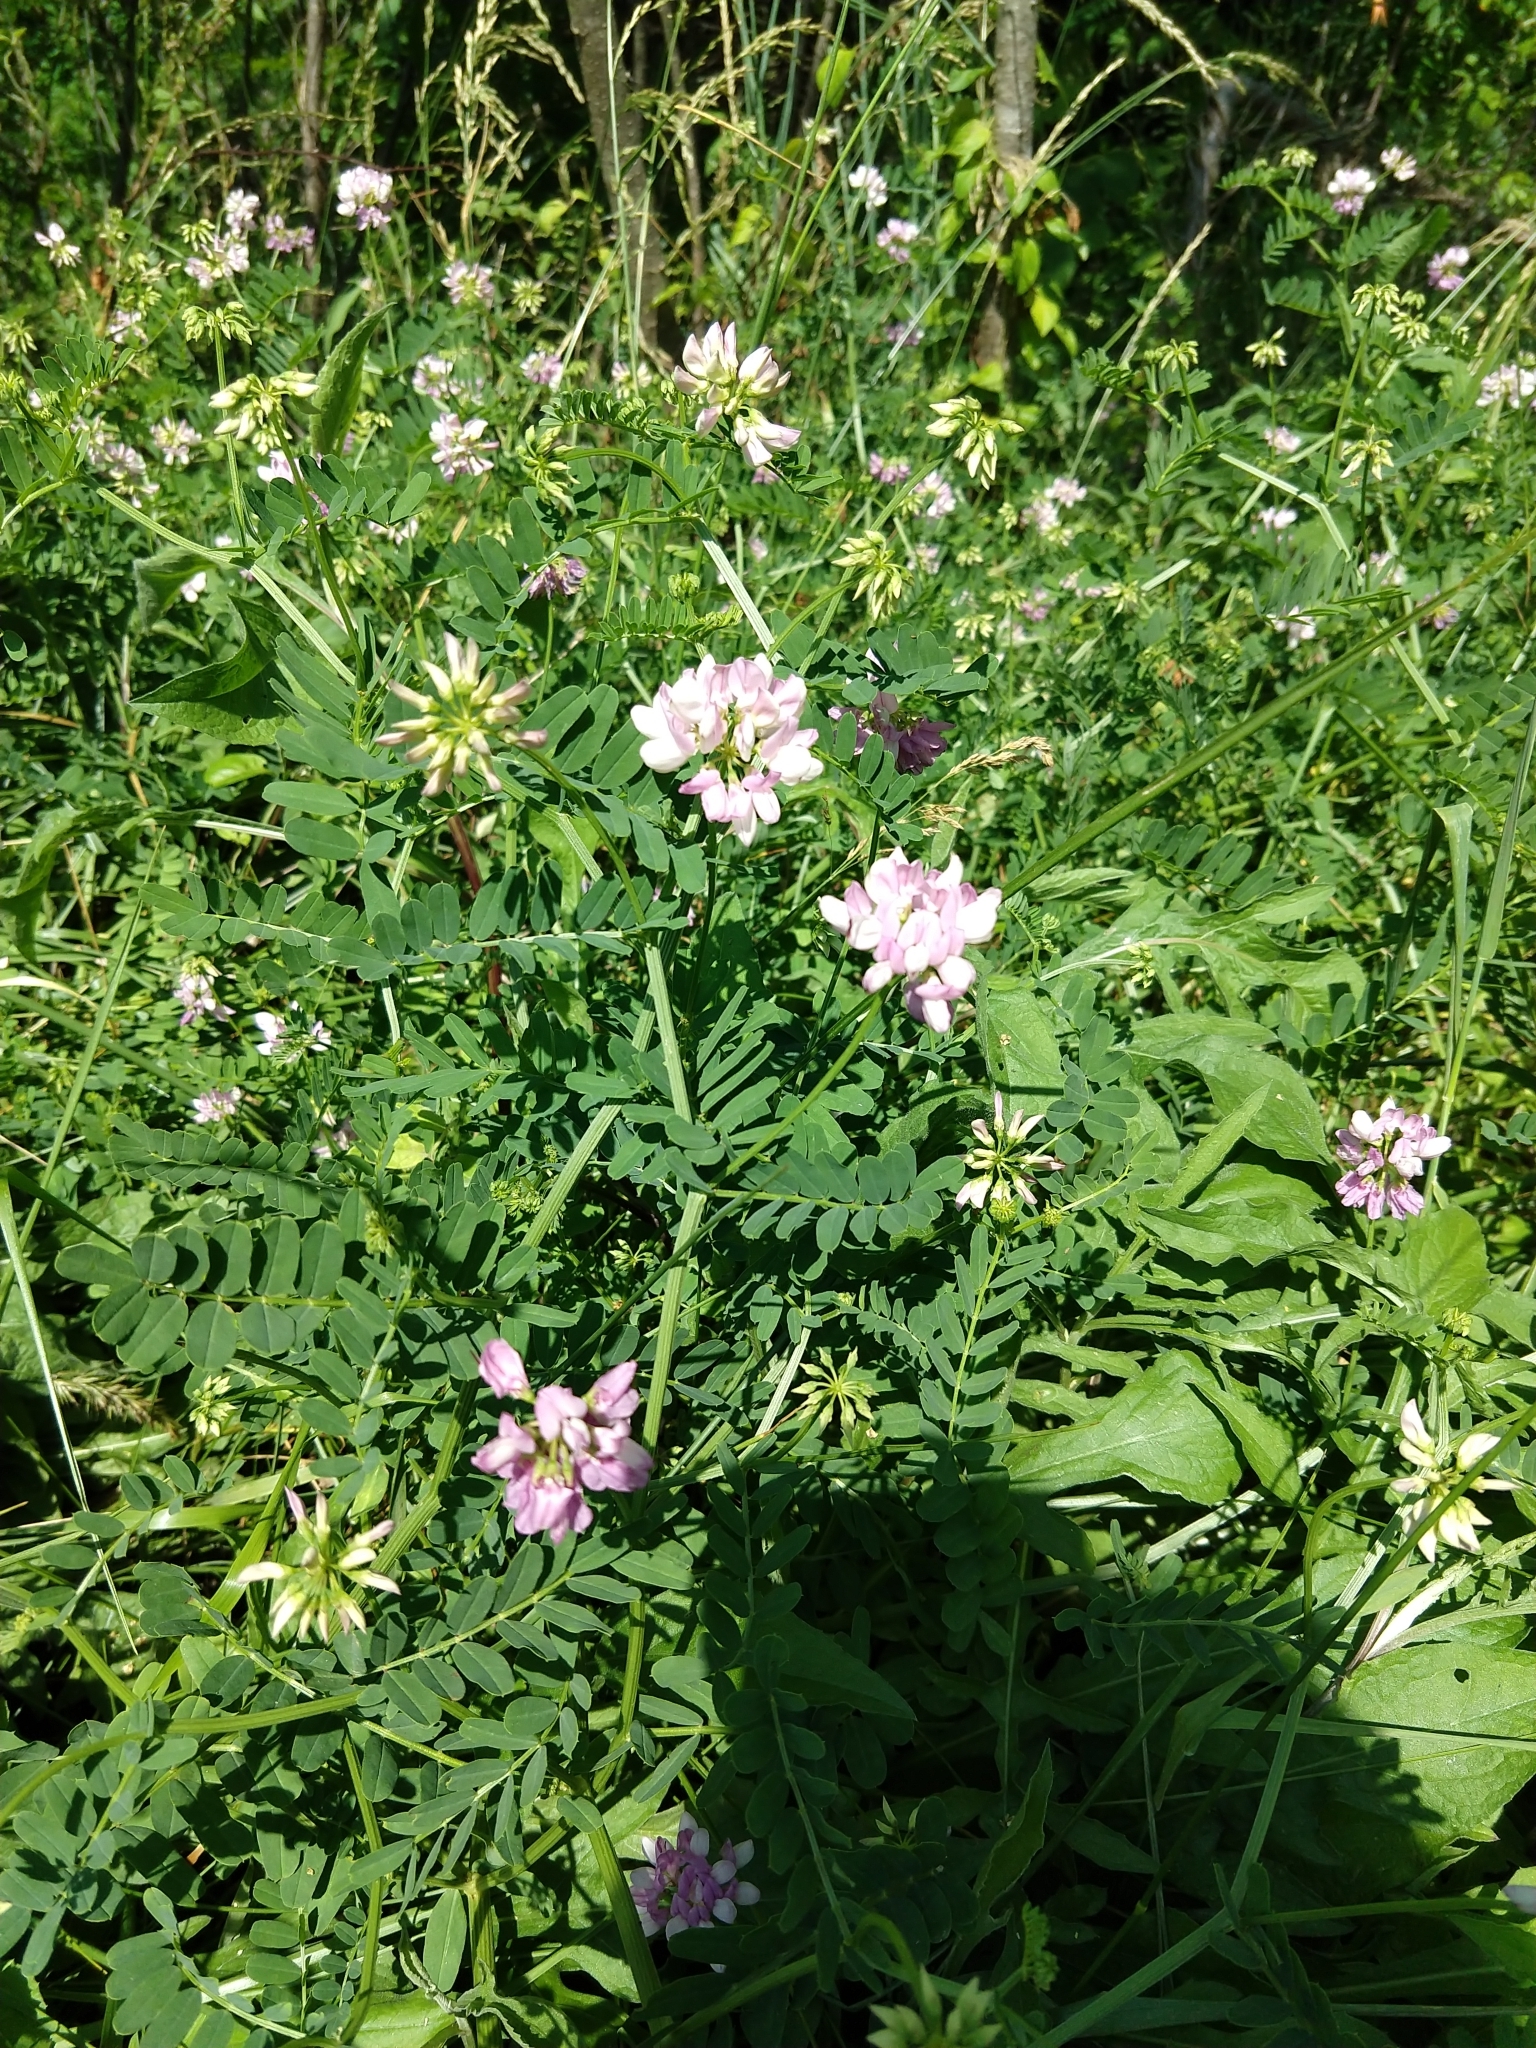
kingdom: Plantae
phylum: Tracheophyta
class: Magnoliopsida
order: Fabales
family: Fabaceae
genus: Coronilla
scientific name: Coronilla varia
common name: Crownvetch
